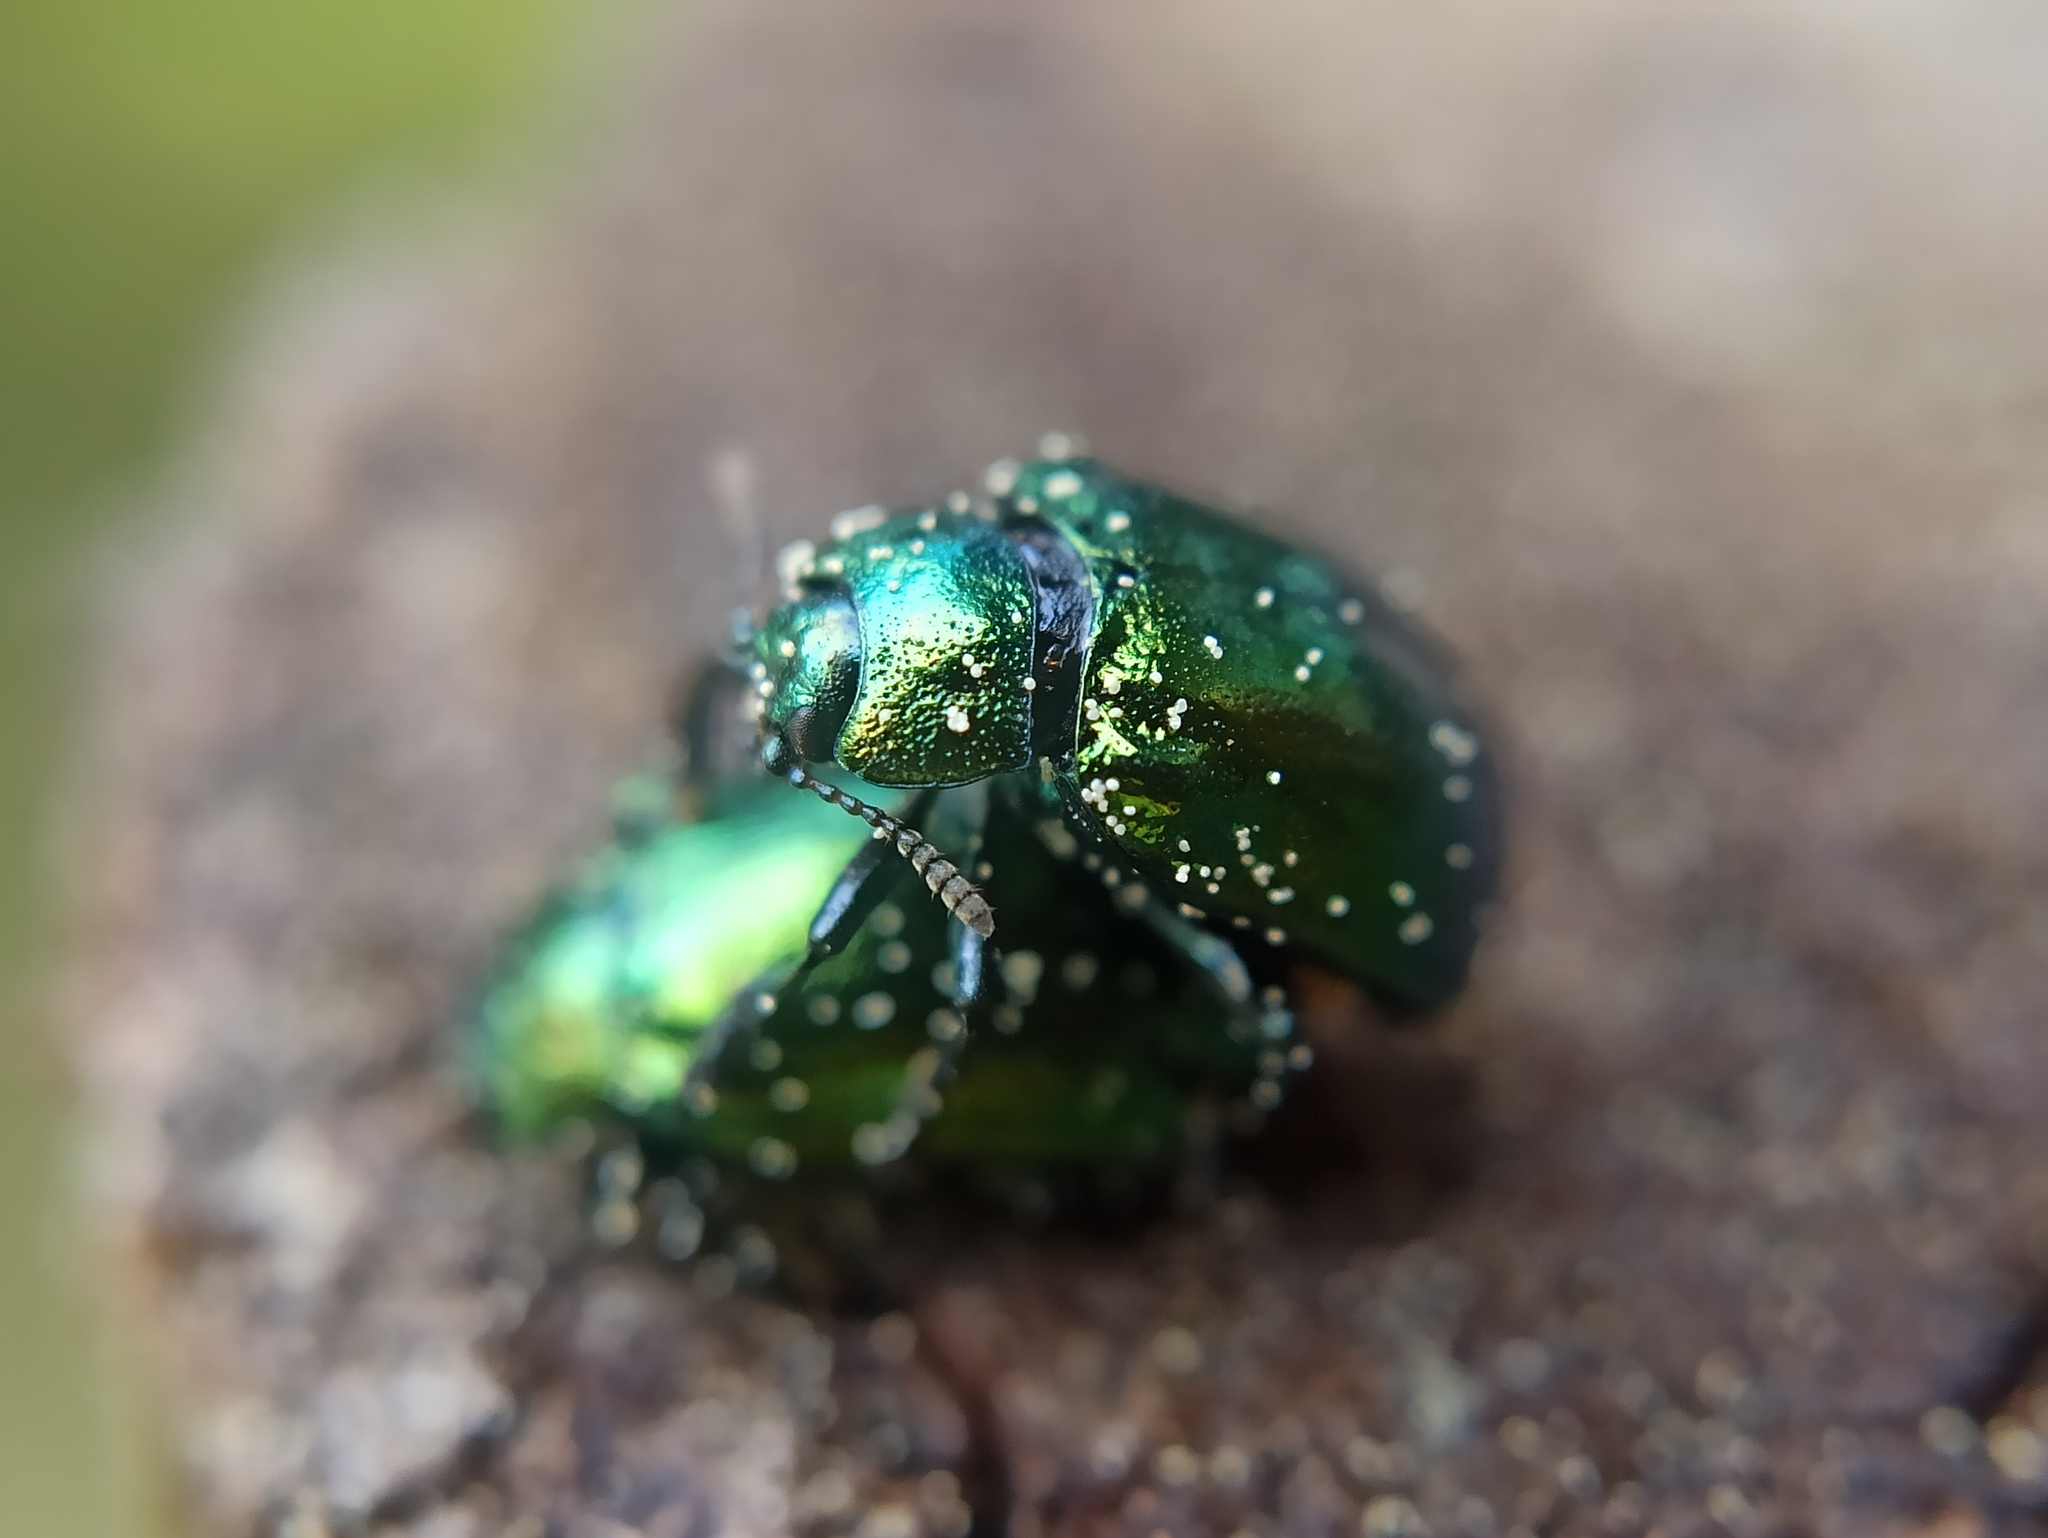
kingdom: Animalia
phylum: Arthropoda
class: Insecta
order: Coleoptera
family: Chrysomelidae
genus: Plagiosterna
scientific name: Plagiosterna aenea
